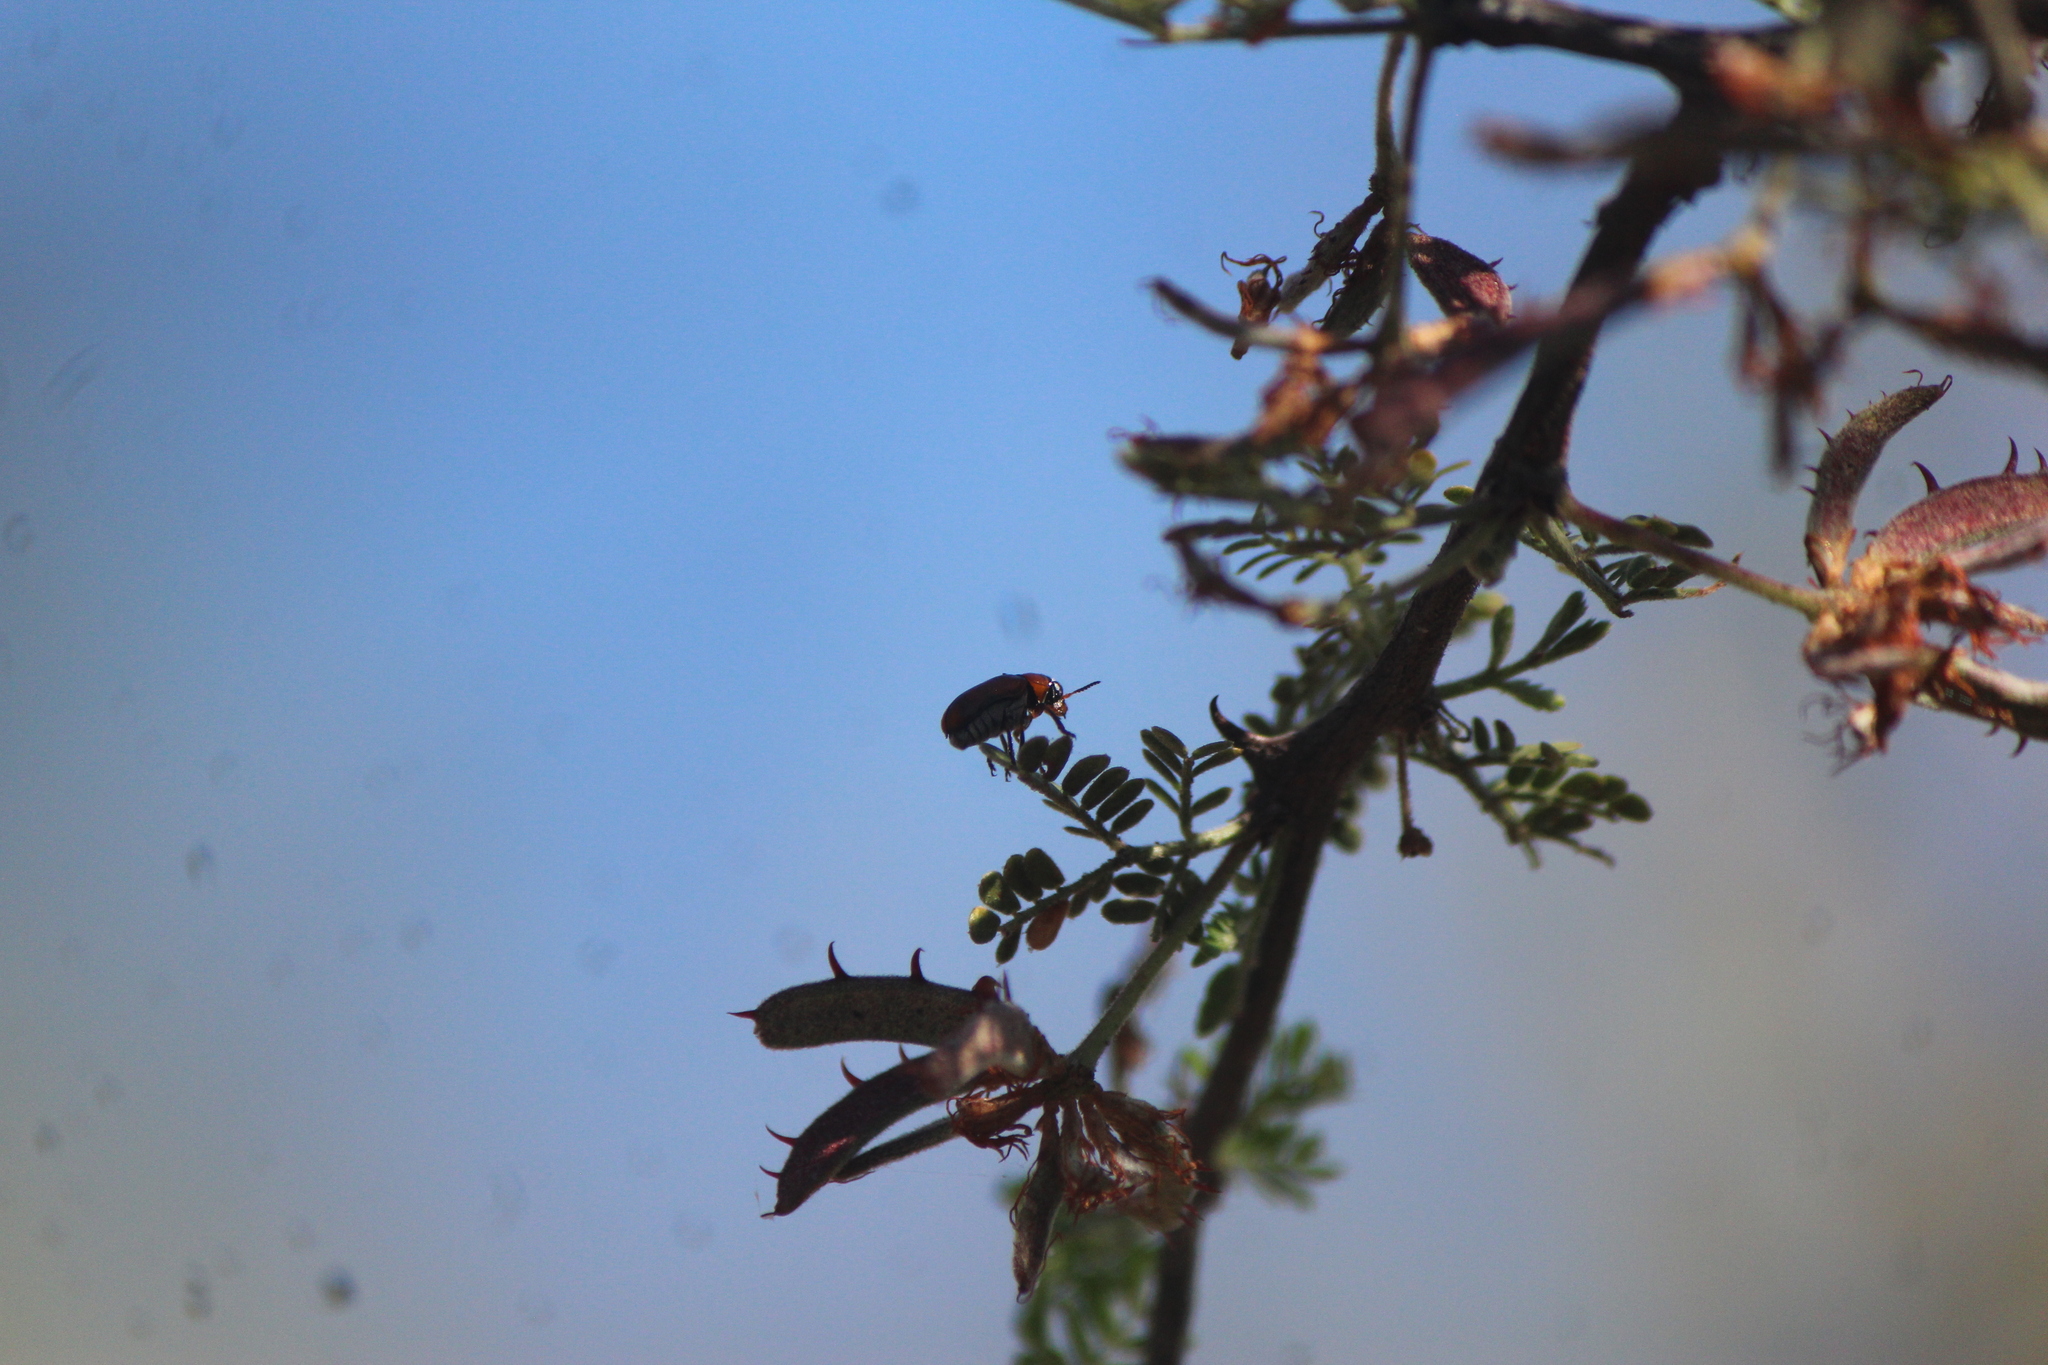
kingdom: Animalia
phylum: Arthropoda
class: Insecta
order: Coleoptera
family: Chrysomelidae
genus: Anomoea
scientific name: Anomoea rufifrons
